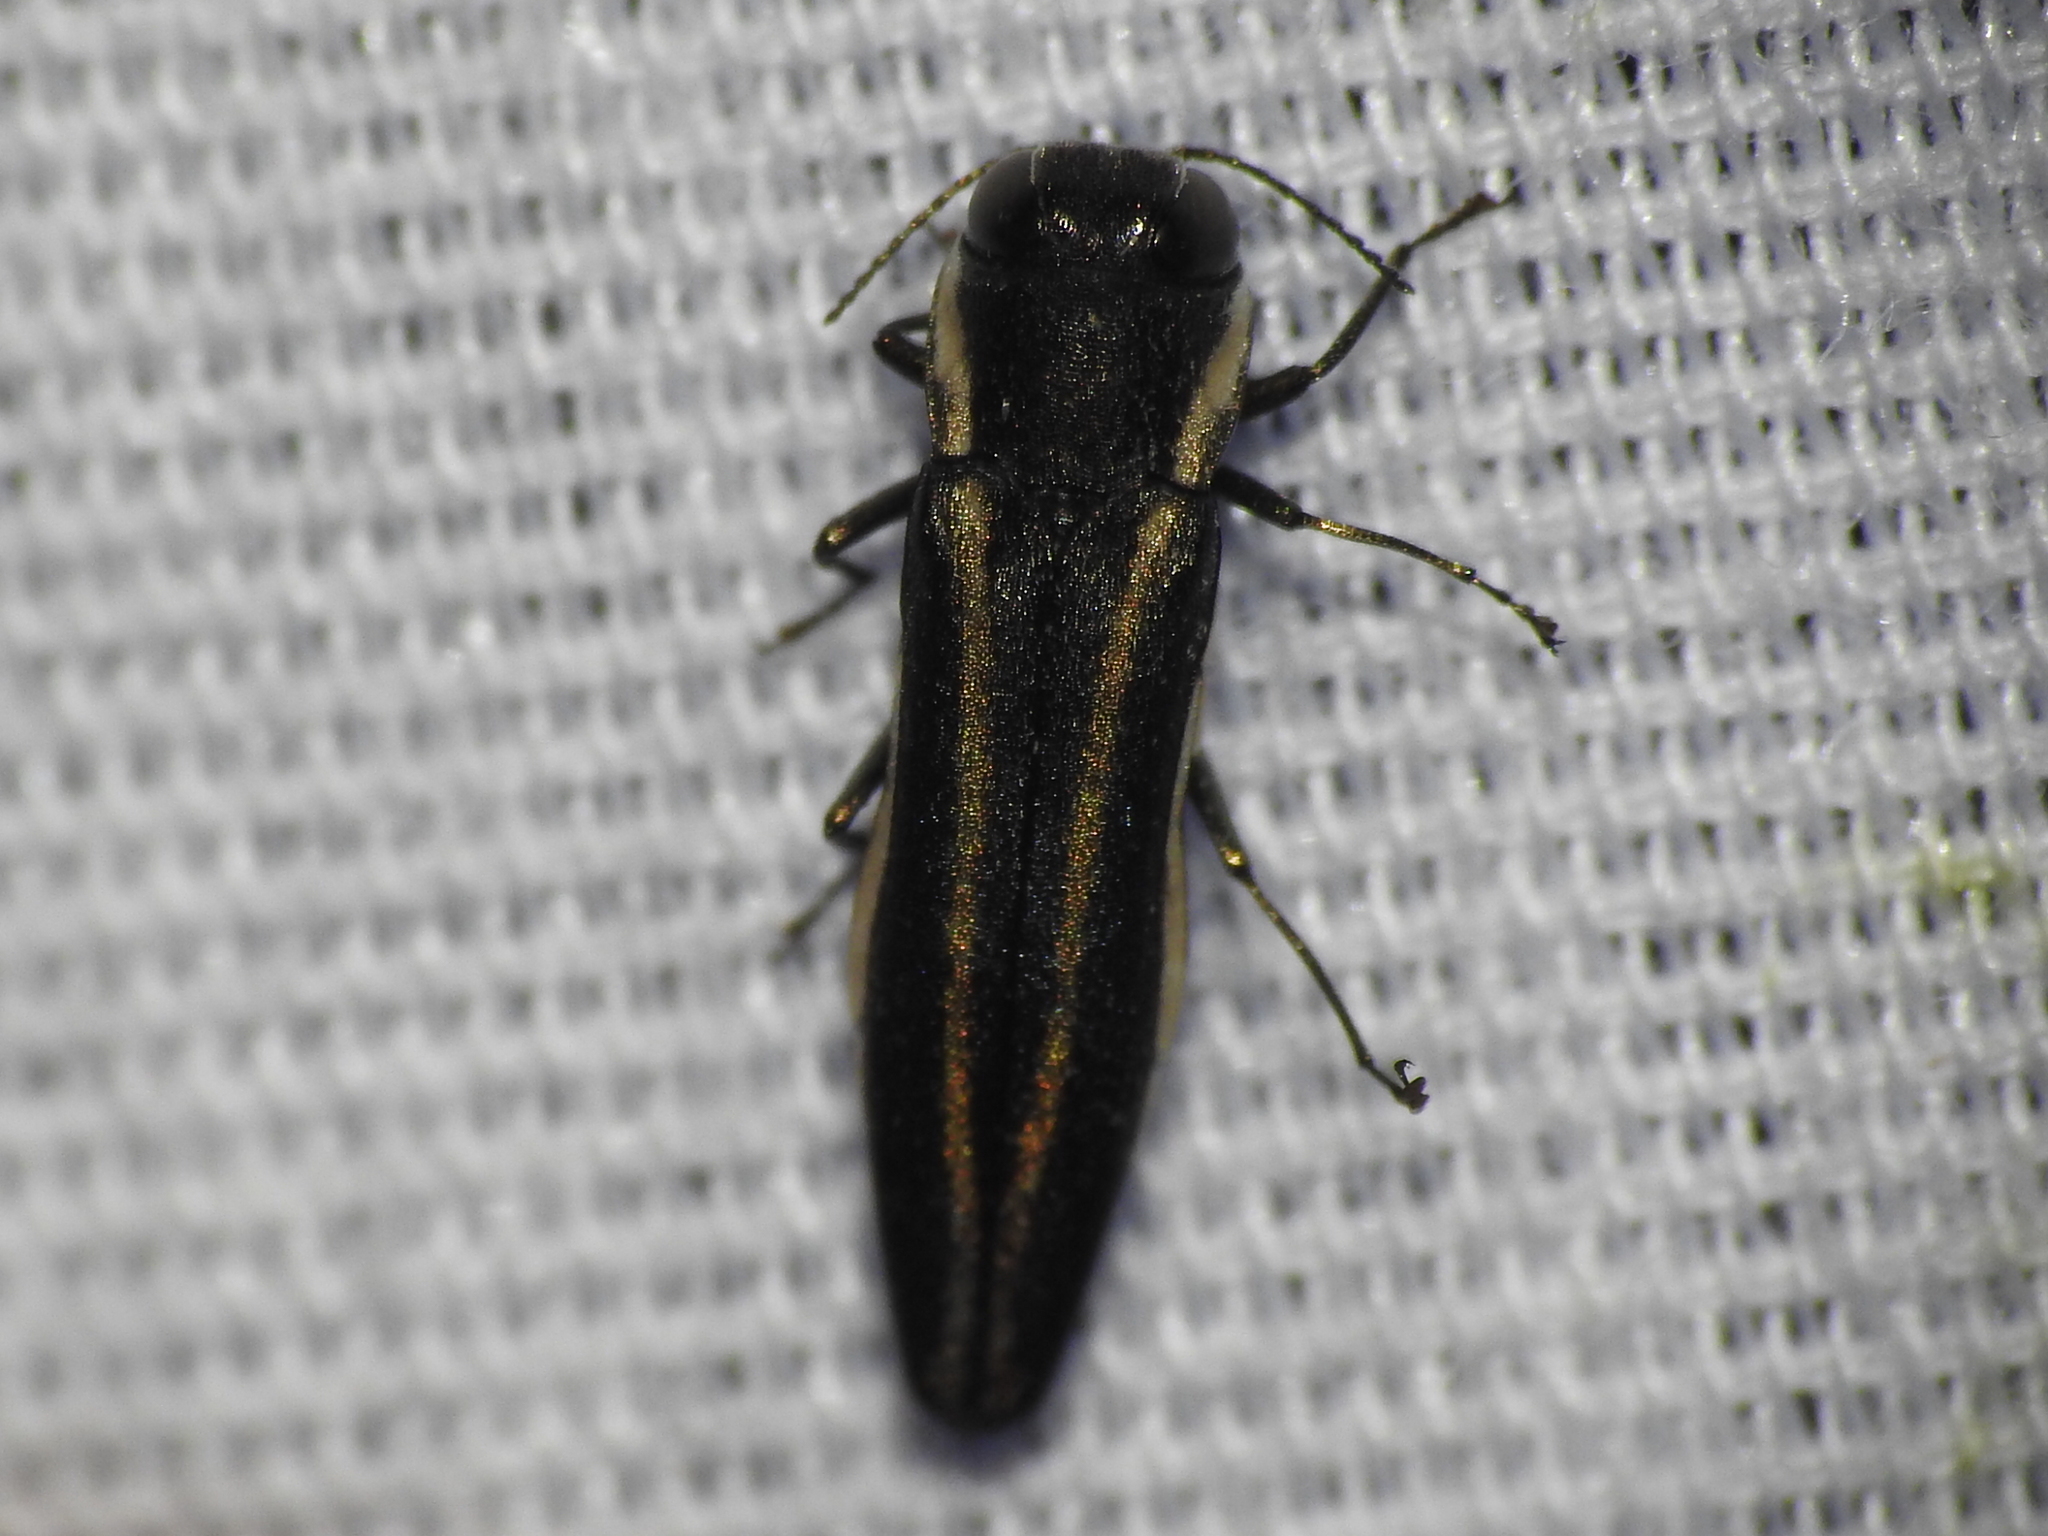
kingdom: Animalia
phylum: Arthropoda
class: Insecta
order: Coleoptera
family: Buprestidae
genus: Agrilus
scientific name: Agrilus bilineatus
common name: Two-lined chestnut borer
